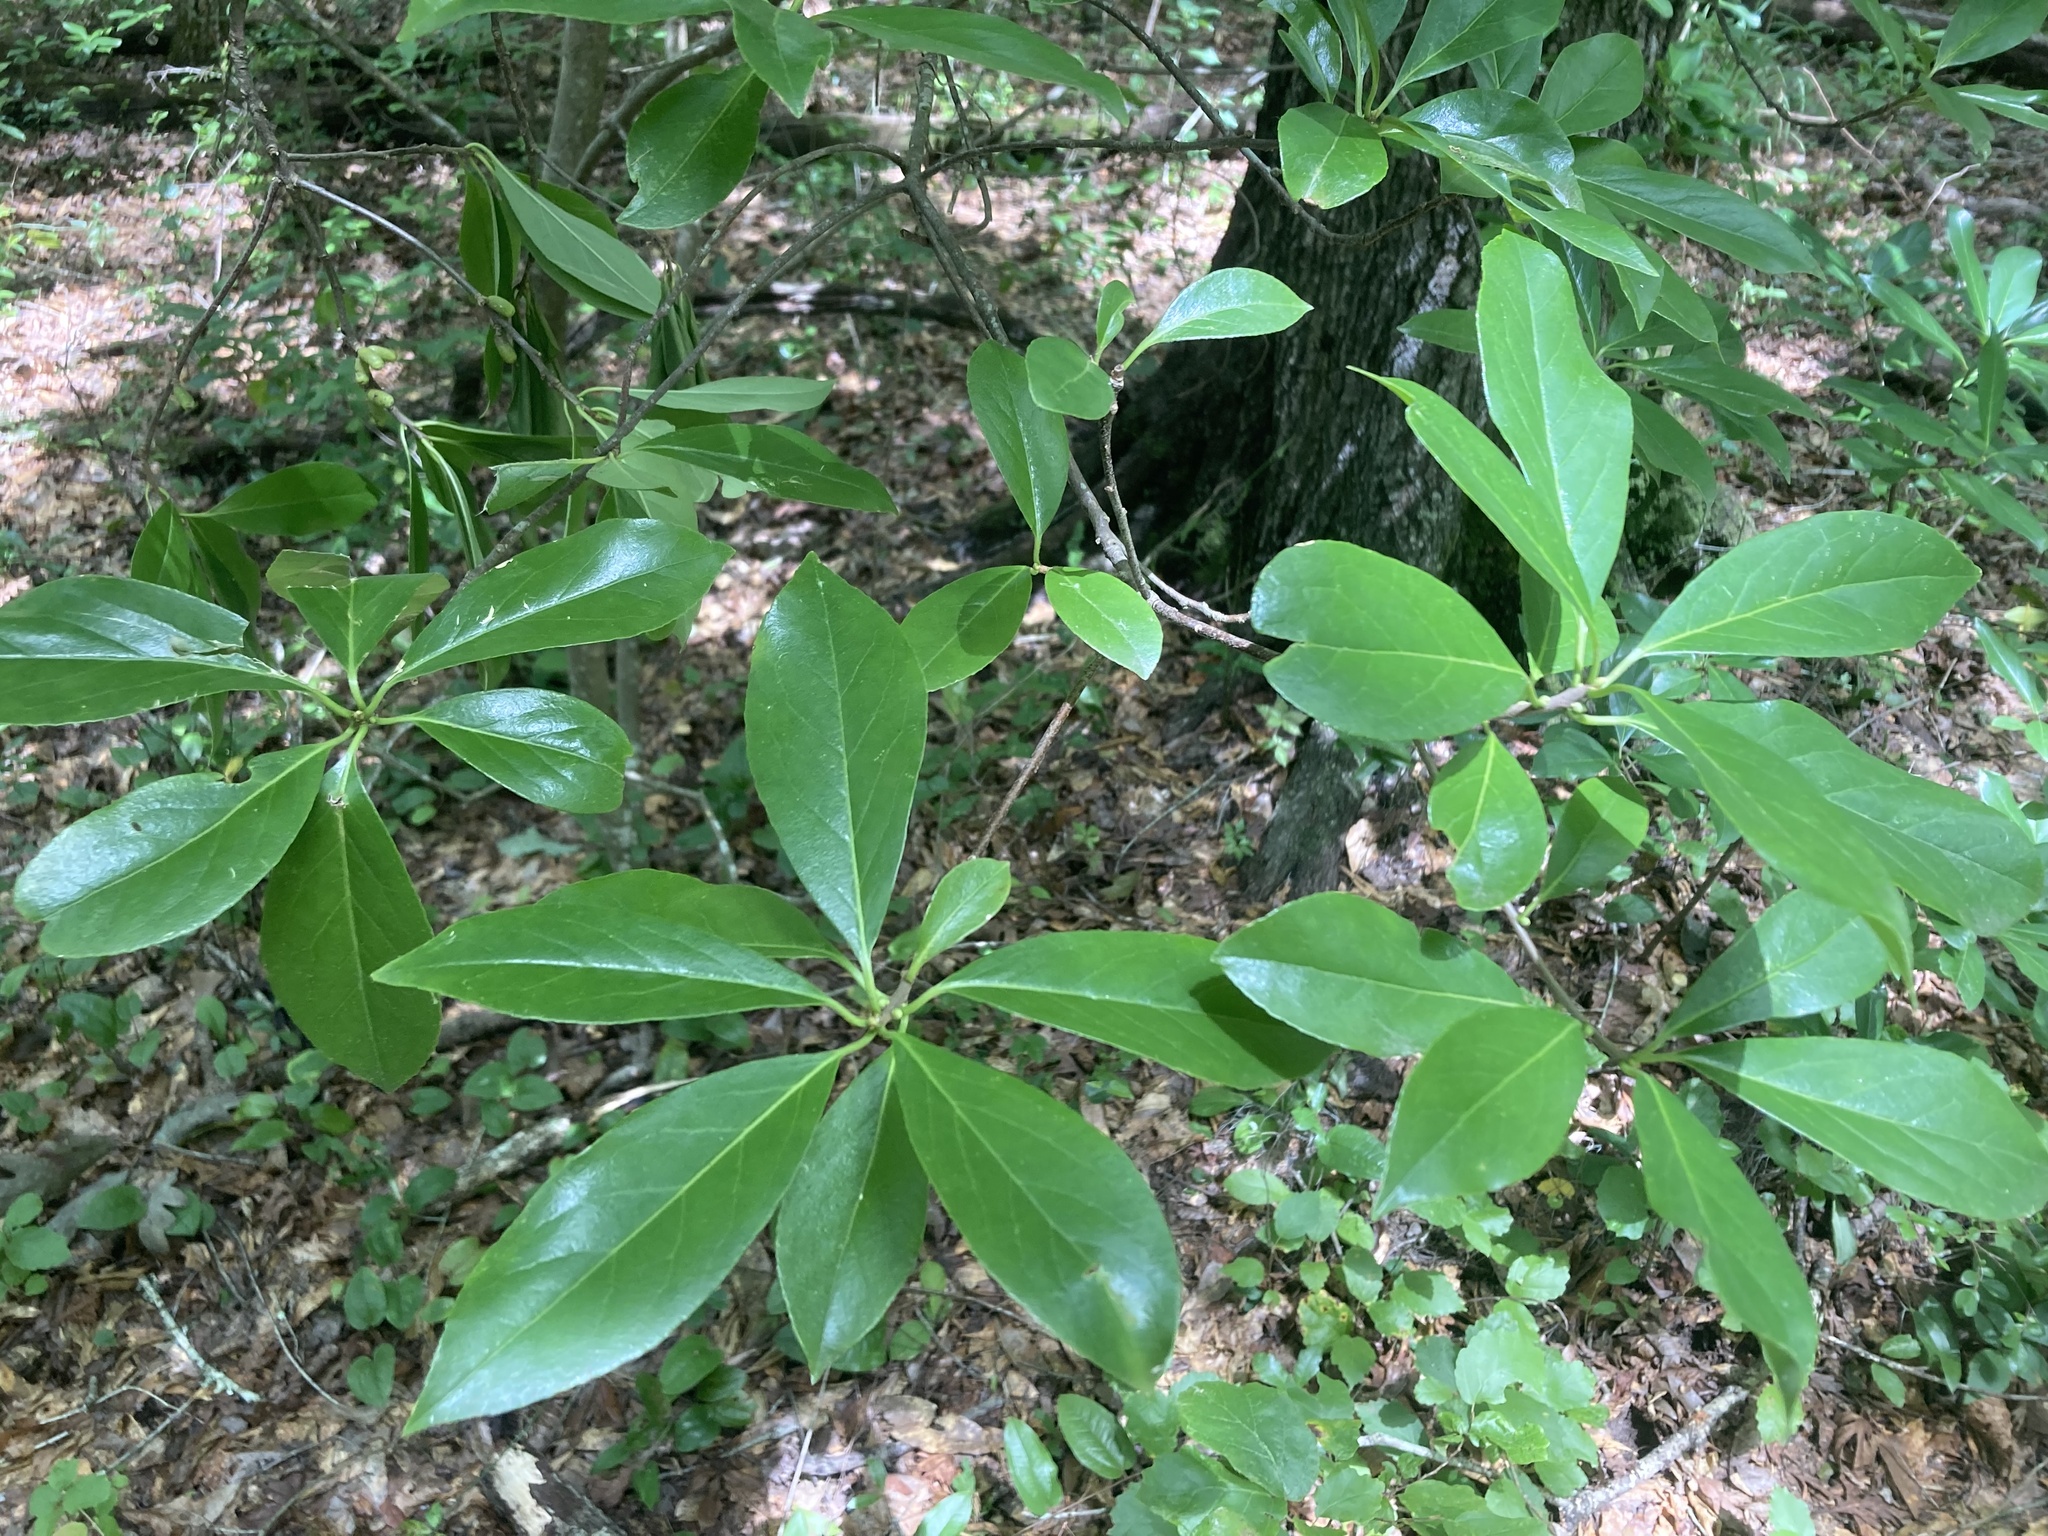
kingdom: Plantae
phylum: Tracheophyta
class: Magnoliopsida
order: Ericales
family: Symplocaceae
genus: Symplocos
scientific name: Symplocos tinctoria
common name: Horse-sugar
